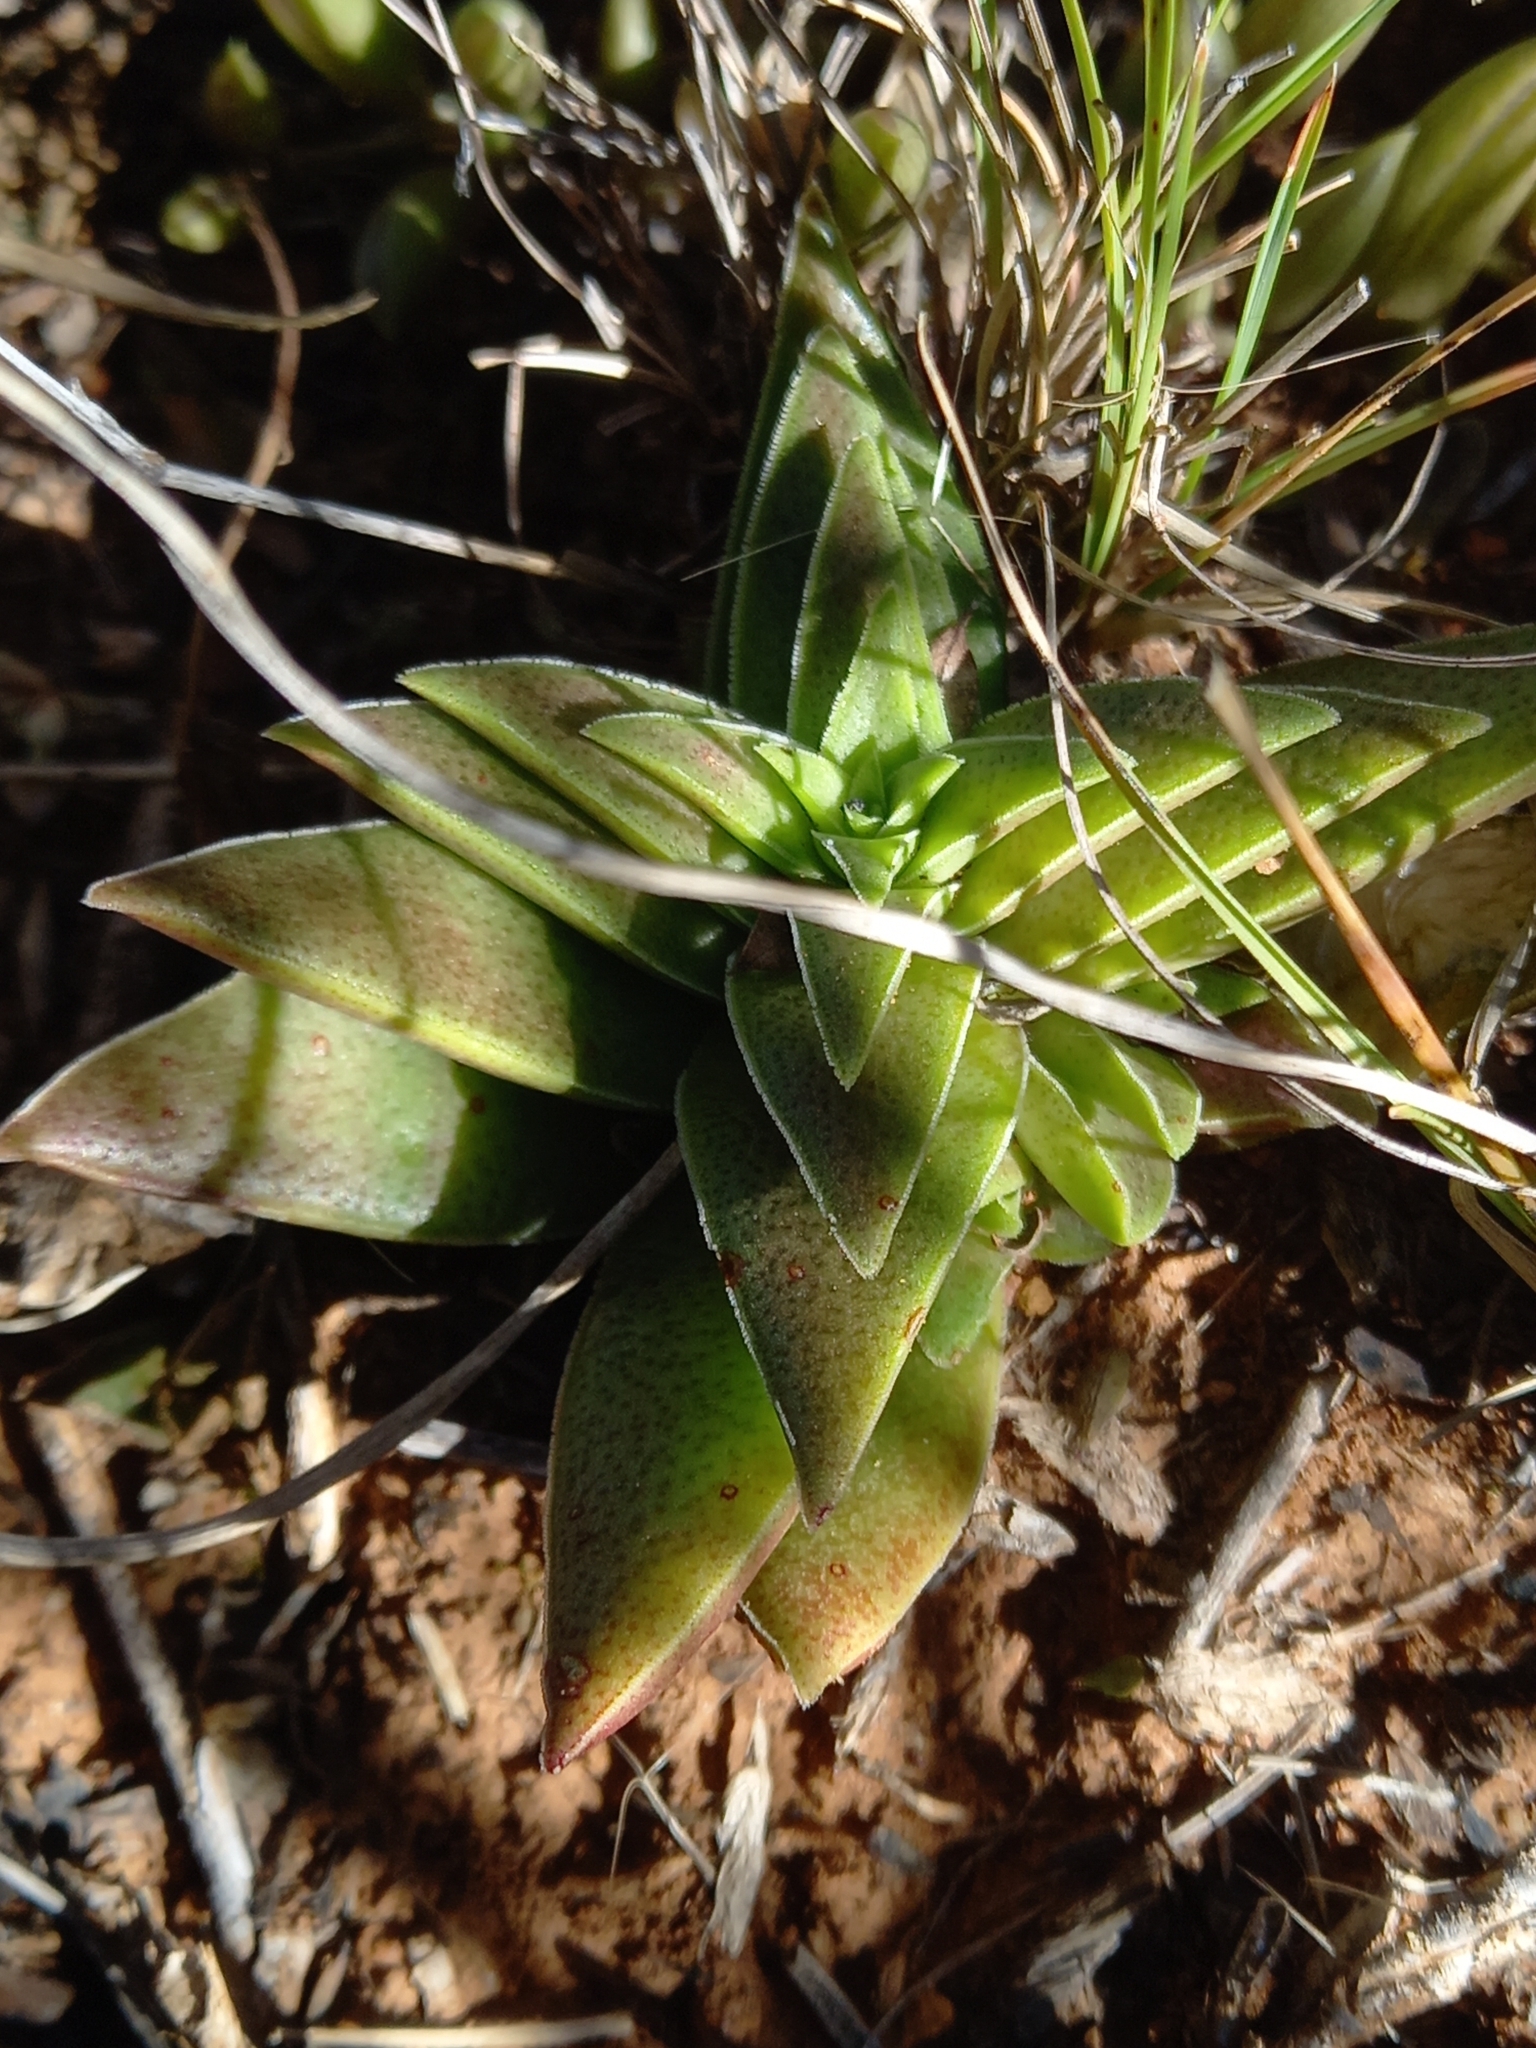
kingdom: Plantae
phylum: Tracheophyta
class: Magnoliopsida
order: Saxifragales
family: Crassulaceae
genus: Crassula
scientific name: Crassula capitella
